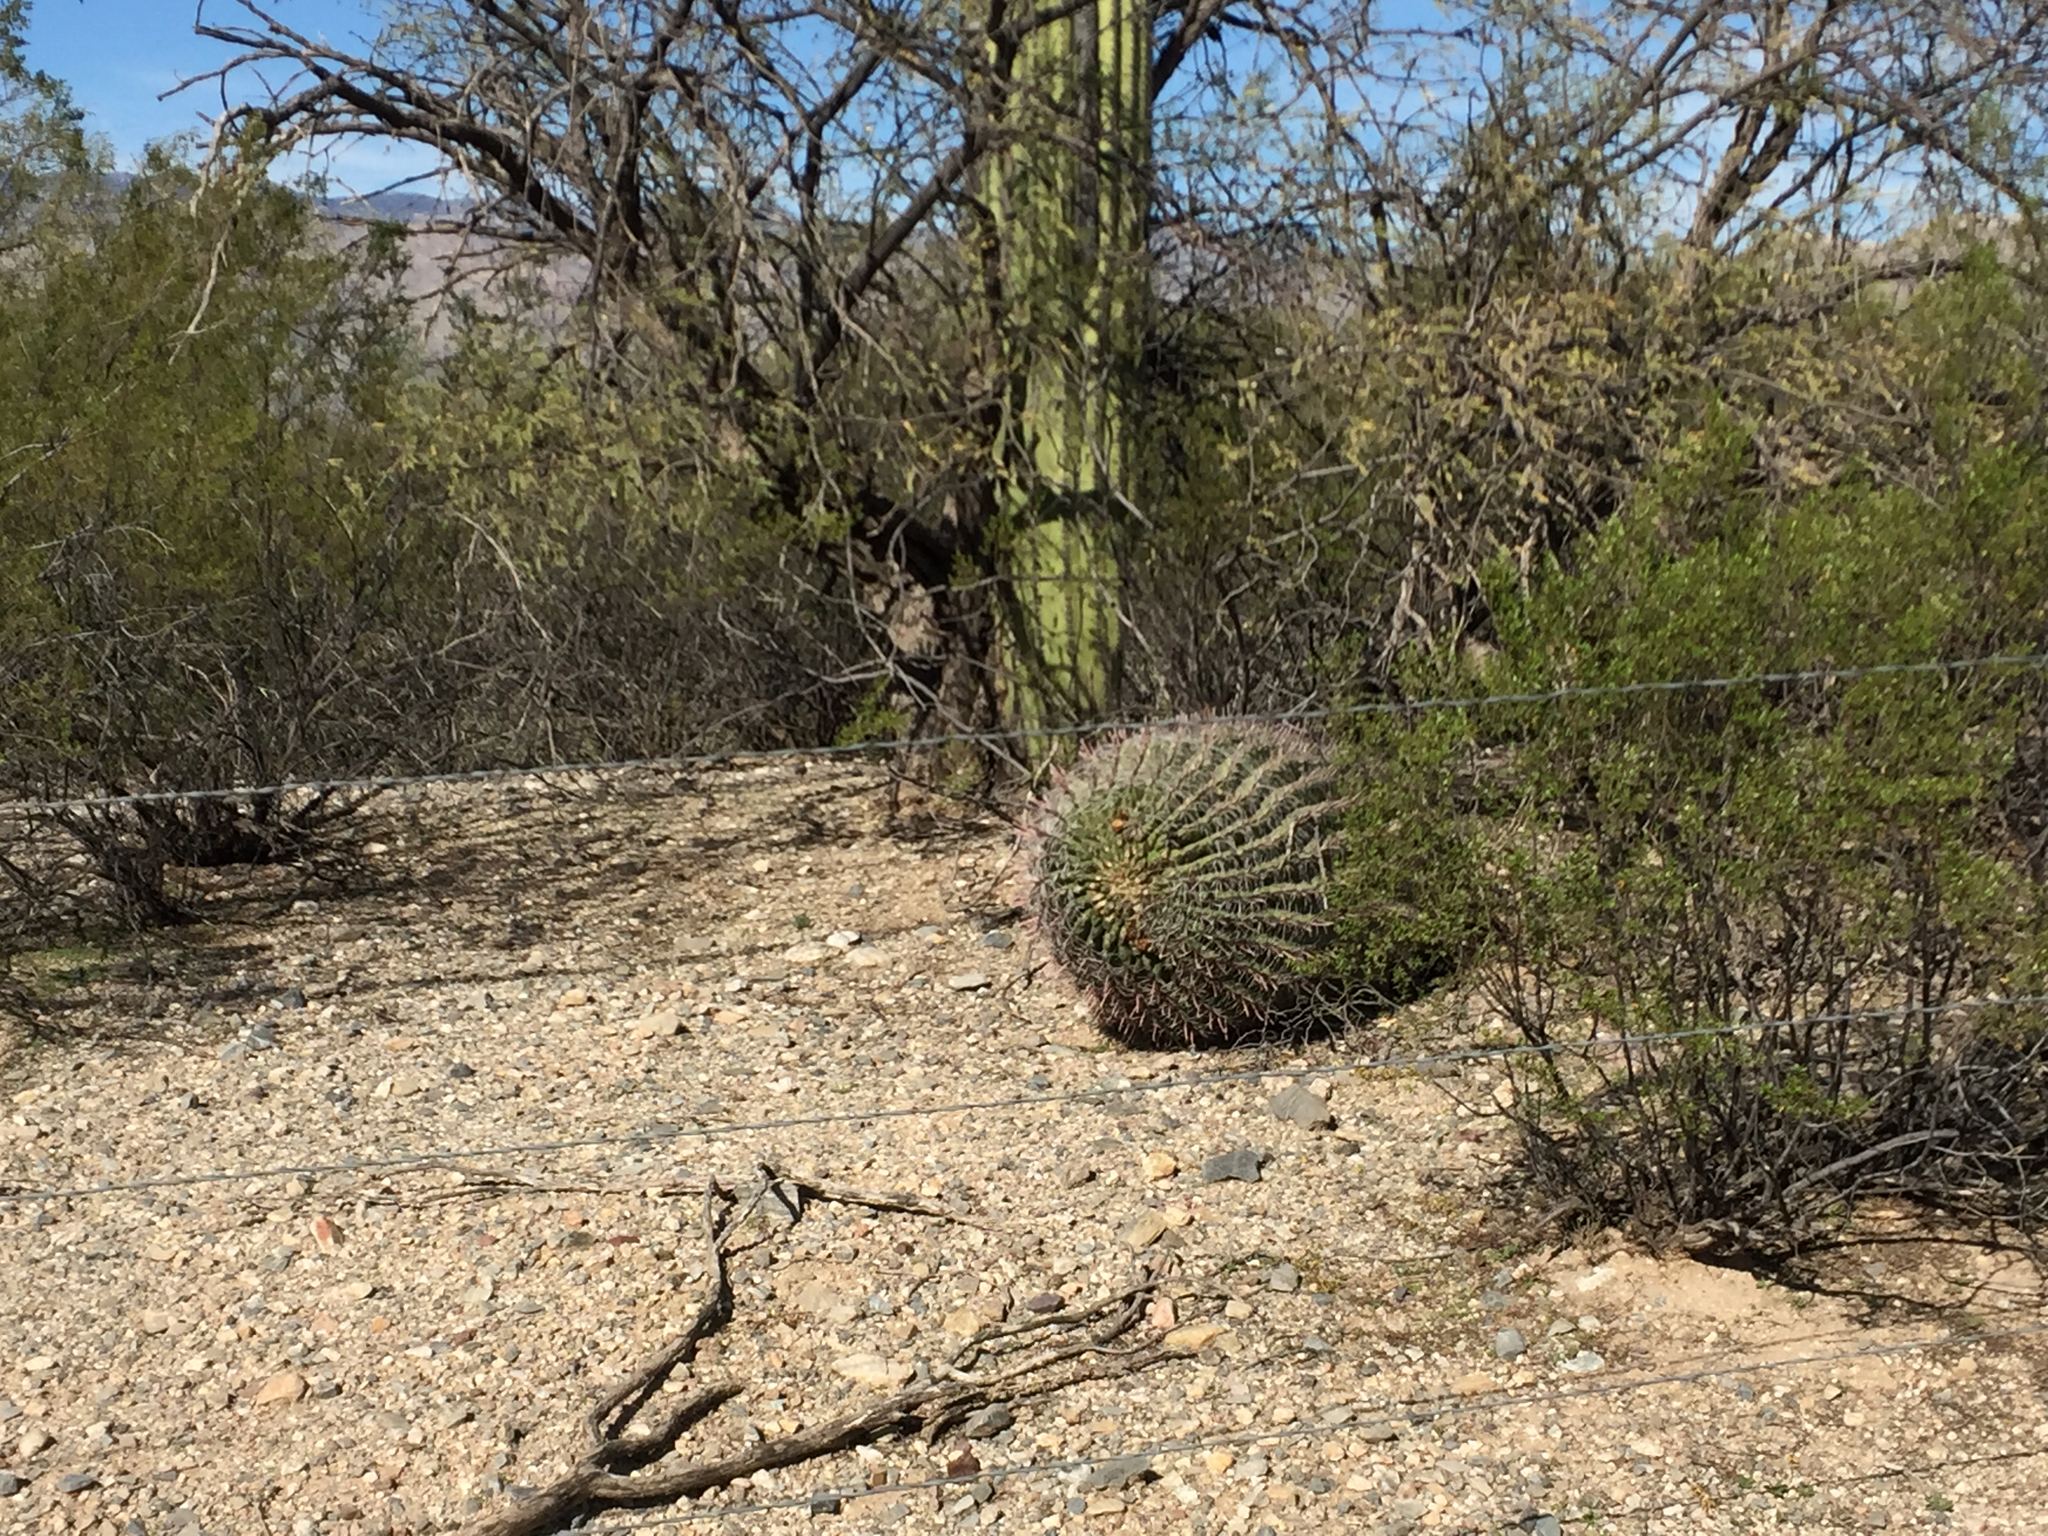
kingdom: Plantae
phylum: Tracheophyta
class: Magnoliopsida
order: Caryophyllales
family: Cactaceae
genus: Ferocactus
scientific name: Ferocactus wislizeni
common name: Candy barrel cactus
